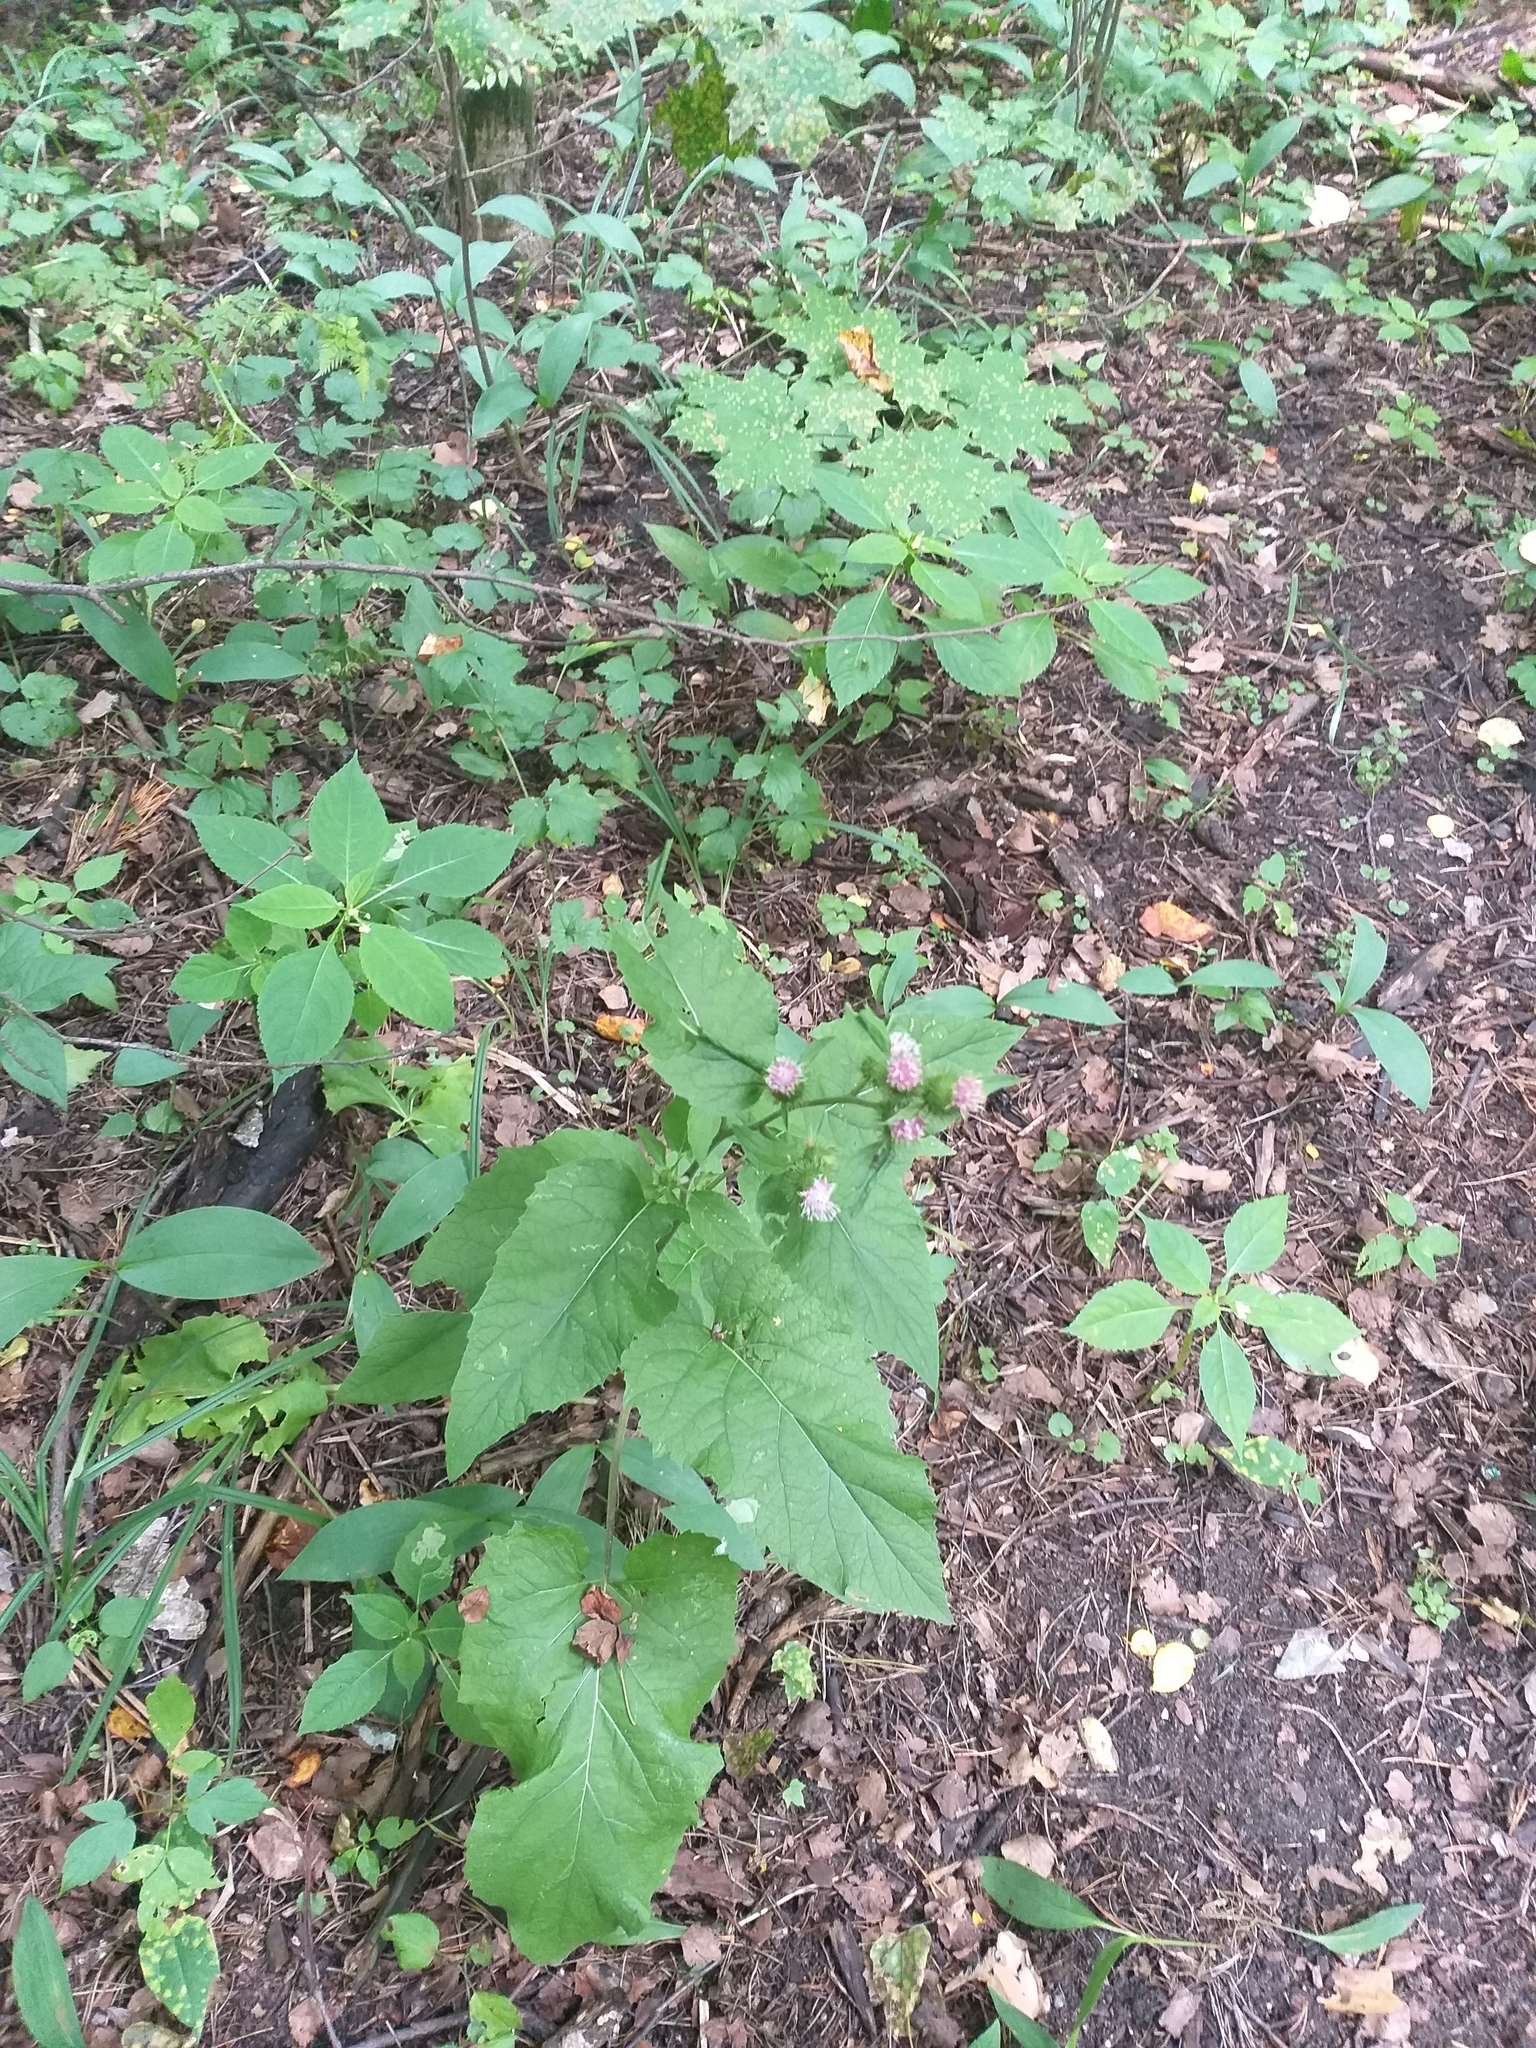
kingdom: Plantae
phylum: Tracheophyta
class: Magnoliopsida
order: Asterales
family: Asteraceae
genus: Arctium
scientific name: Arctium minus
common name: Lesser burdock
